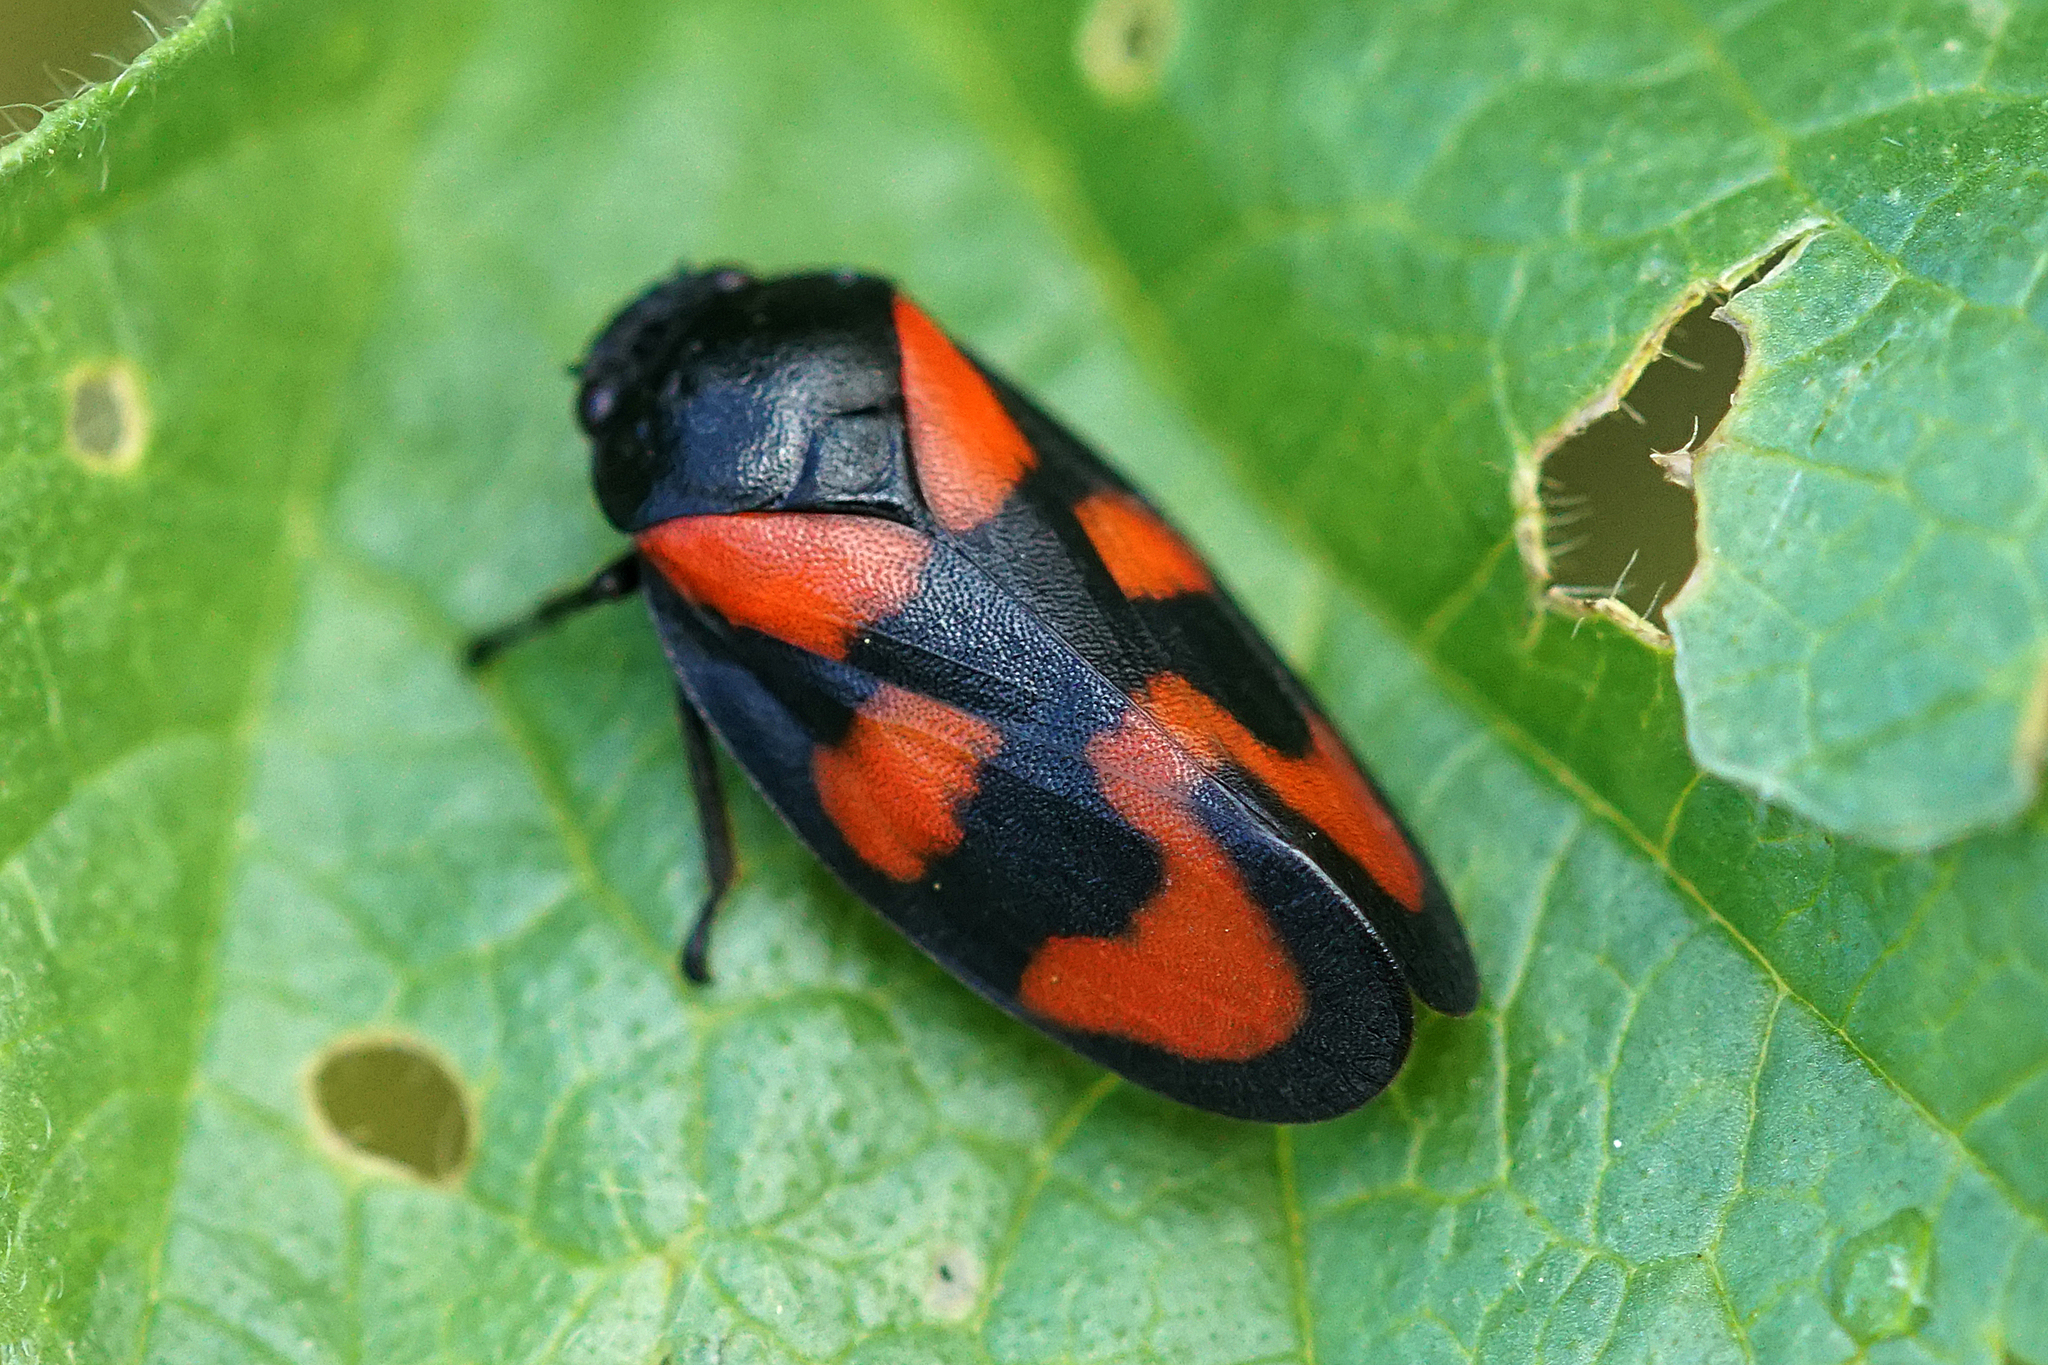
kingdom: Animalia
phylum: Arthropoda
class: Insecta
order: Hemiptera
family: Cercopidae
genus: Cercopis
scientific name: Cercopis vulnerata
